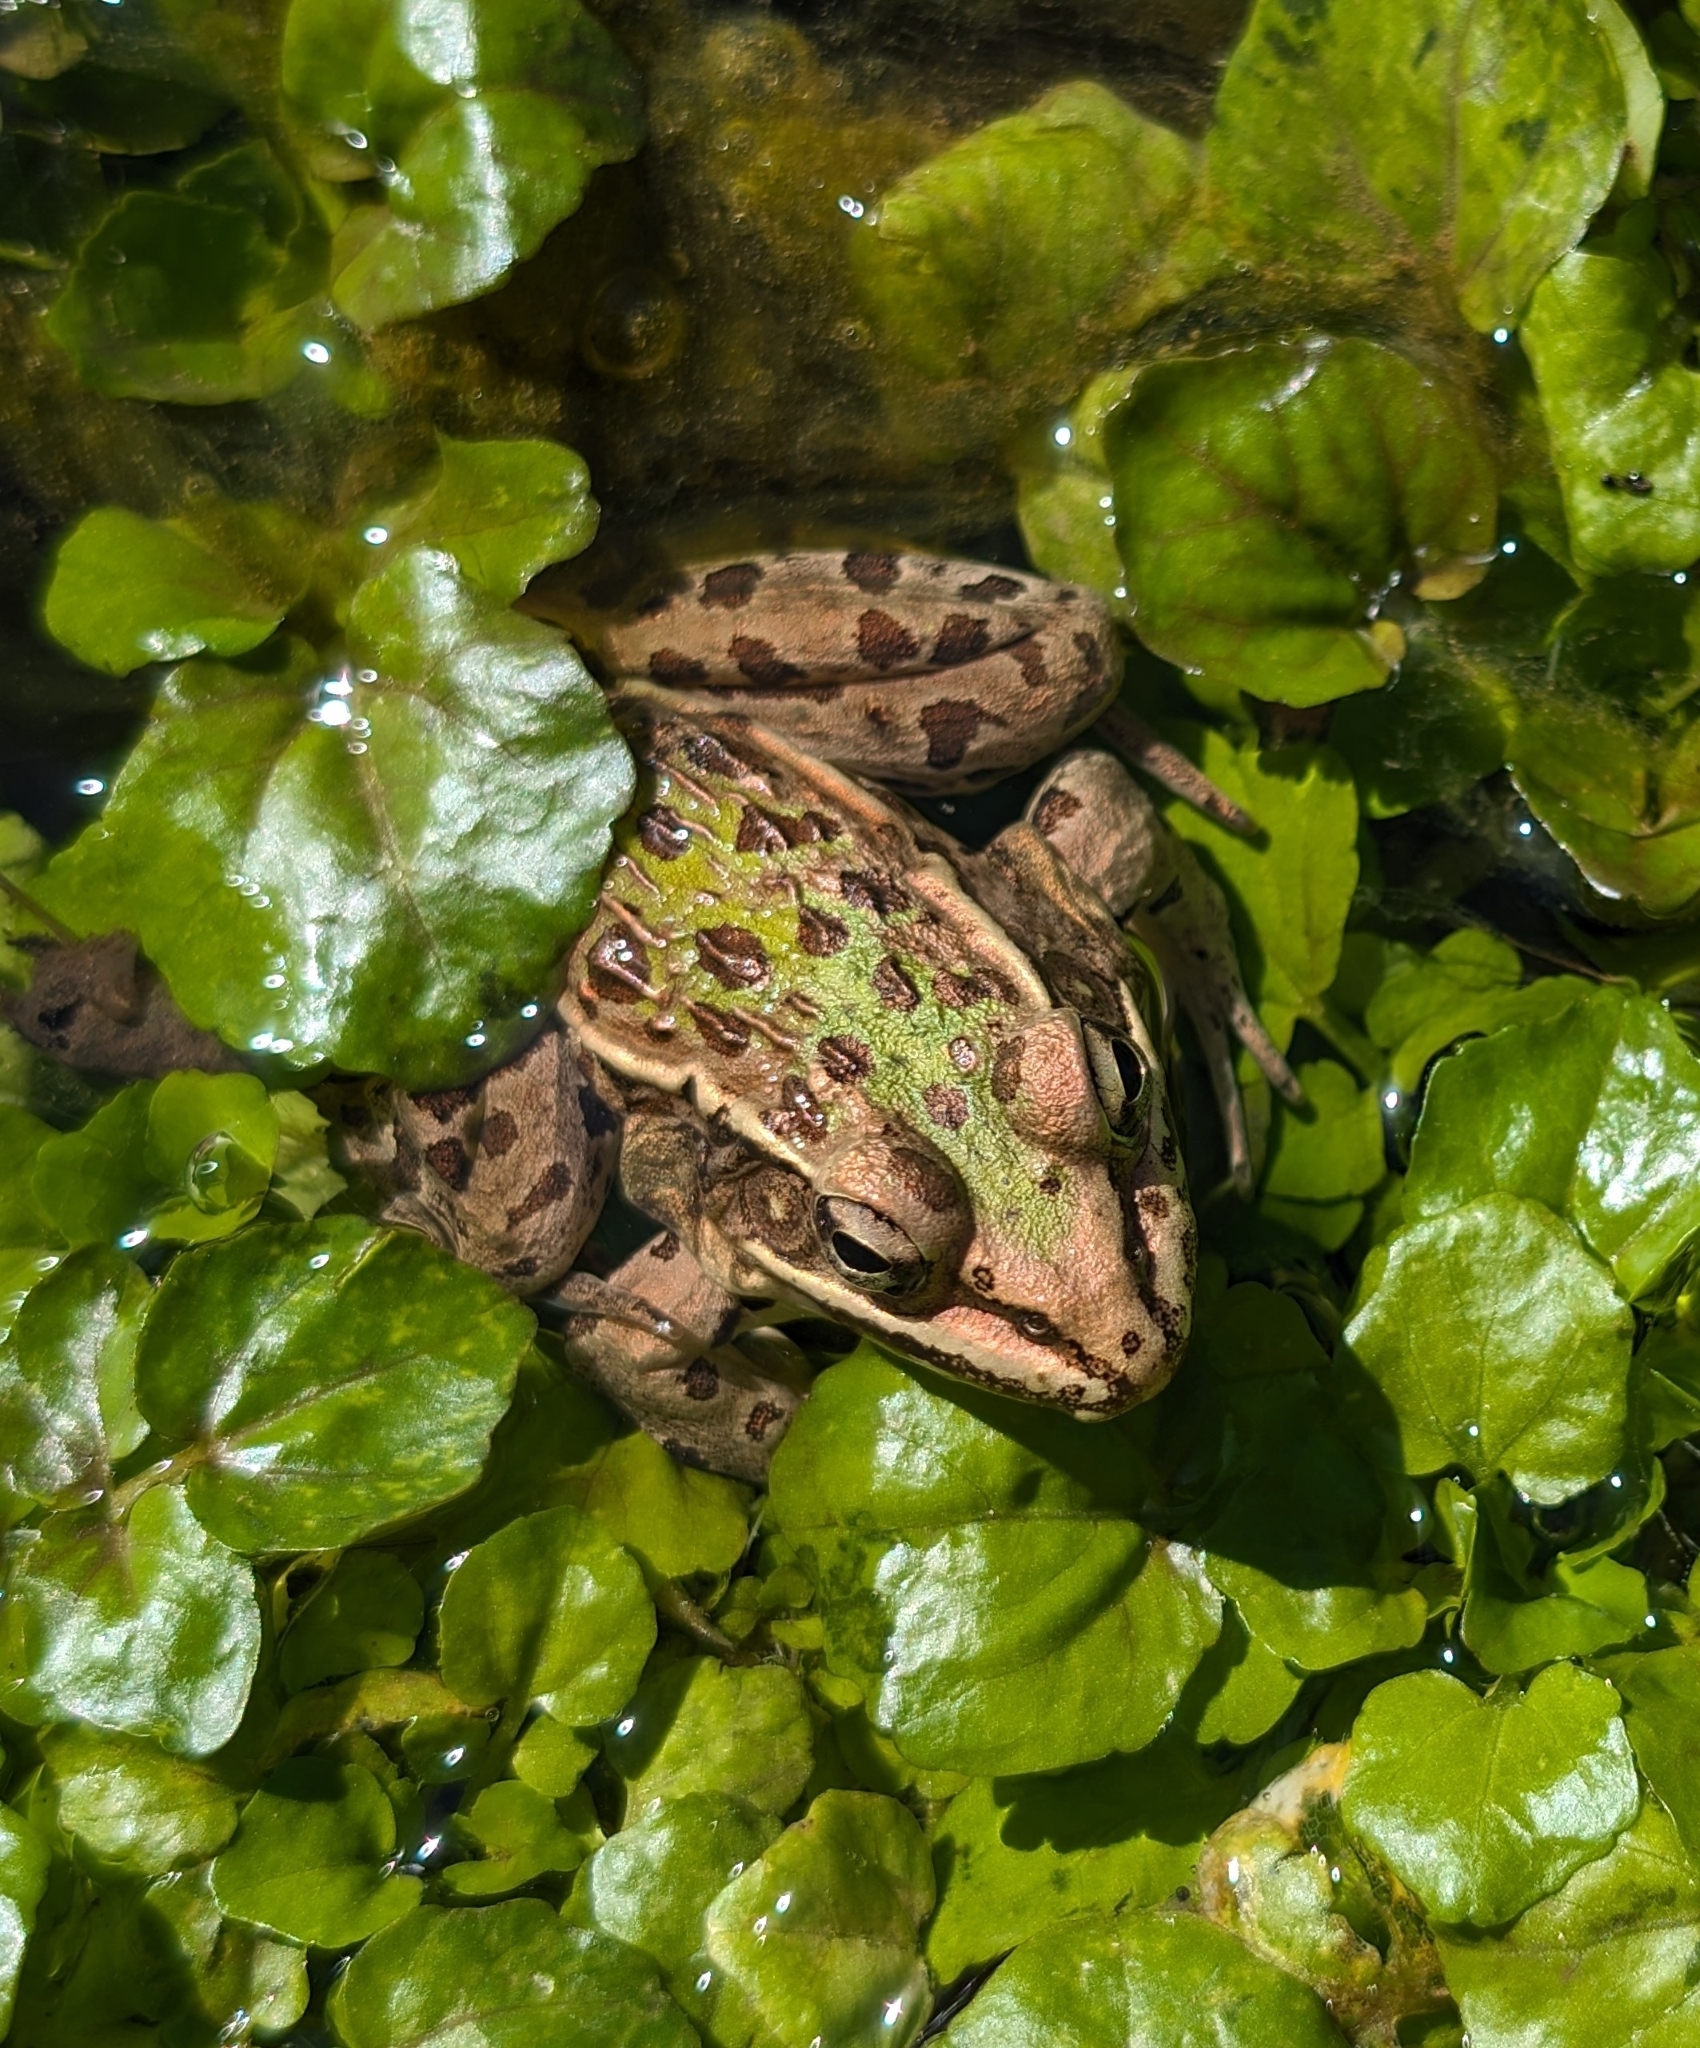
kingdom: Animalia
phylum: Chordata
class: Amphibia
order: Anura
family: Ranidae
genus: Lithobates
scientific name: Lithobates sphenocephalus
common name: Southern leopard frog
